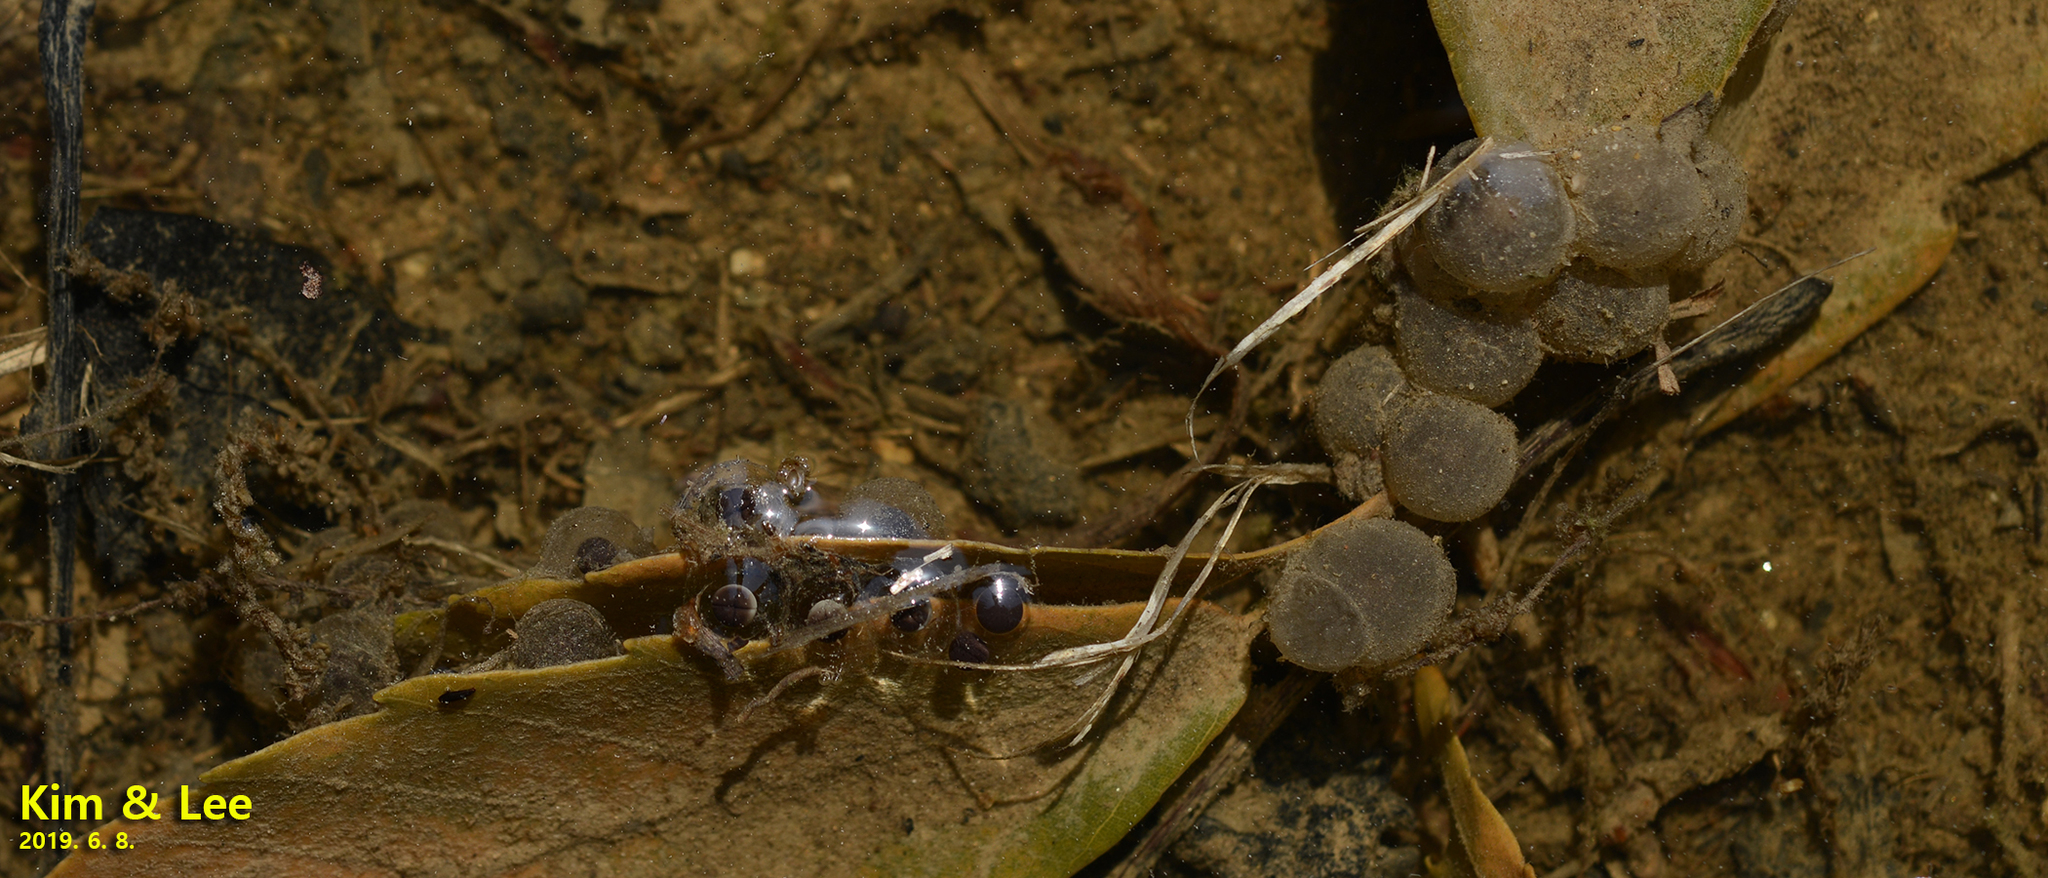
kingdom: Animalia
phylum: Chordata
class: Amphibia
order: Anura
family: Bombinatoridae
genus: Bombina
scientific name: Bombina orientalis
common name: Oriental firebelly toad
